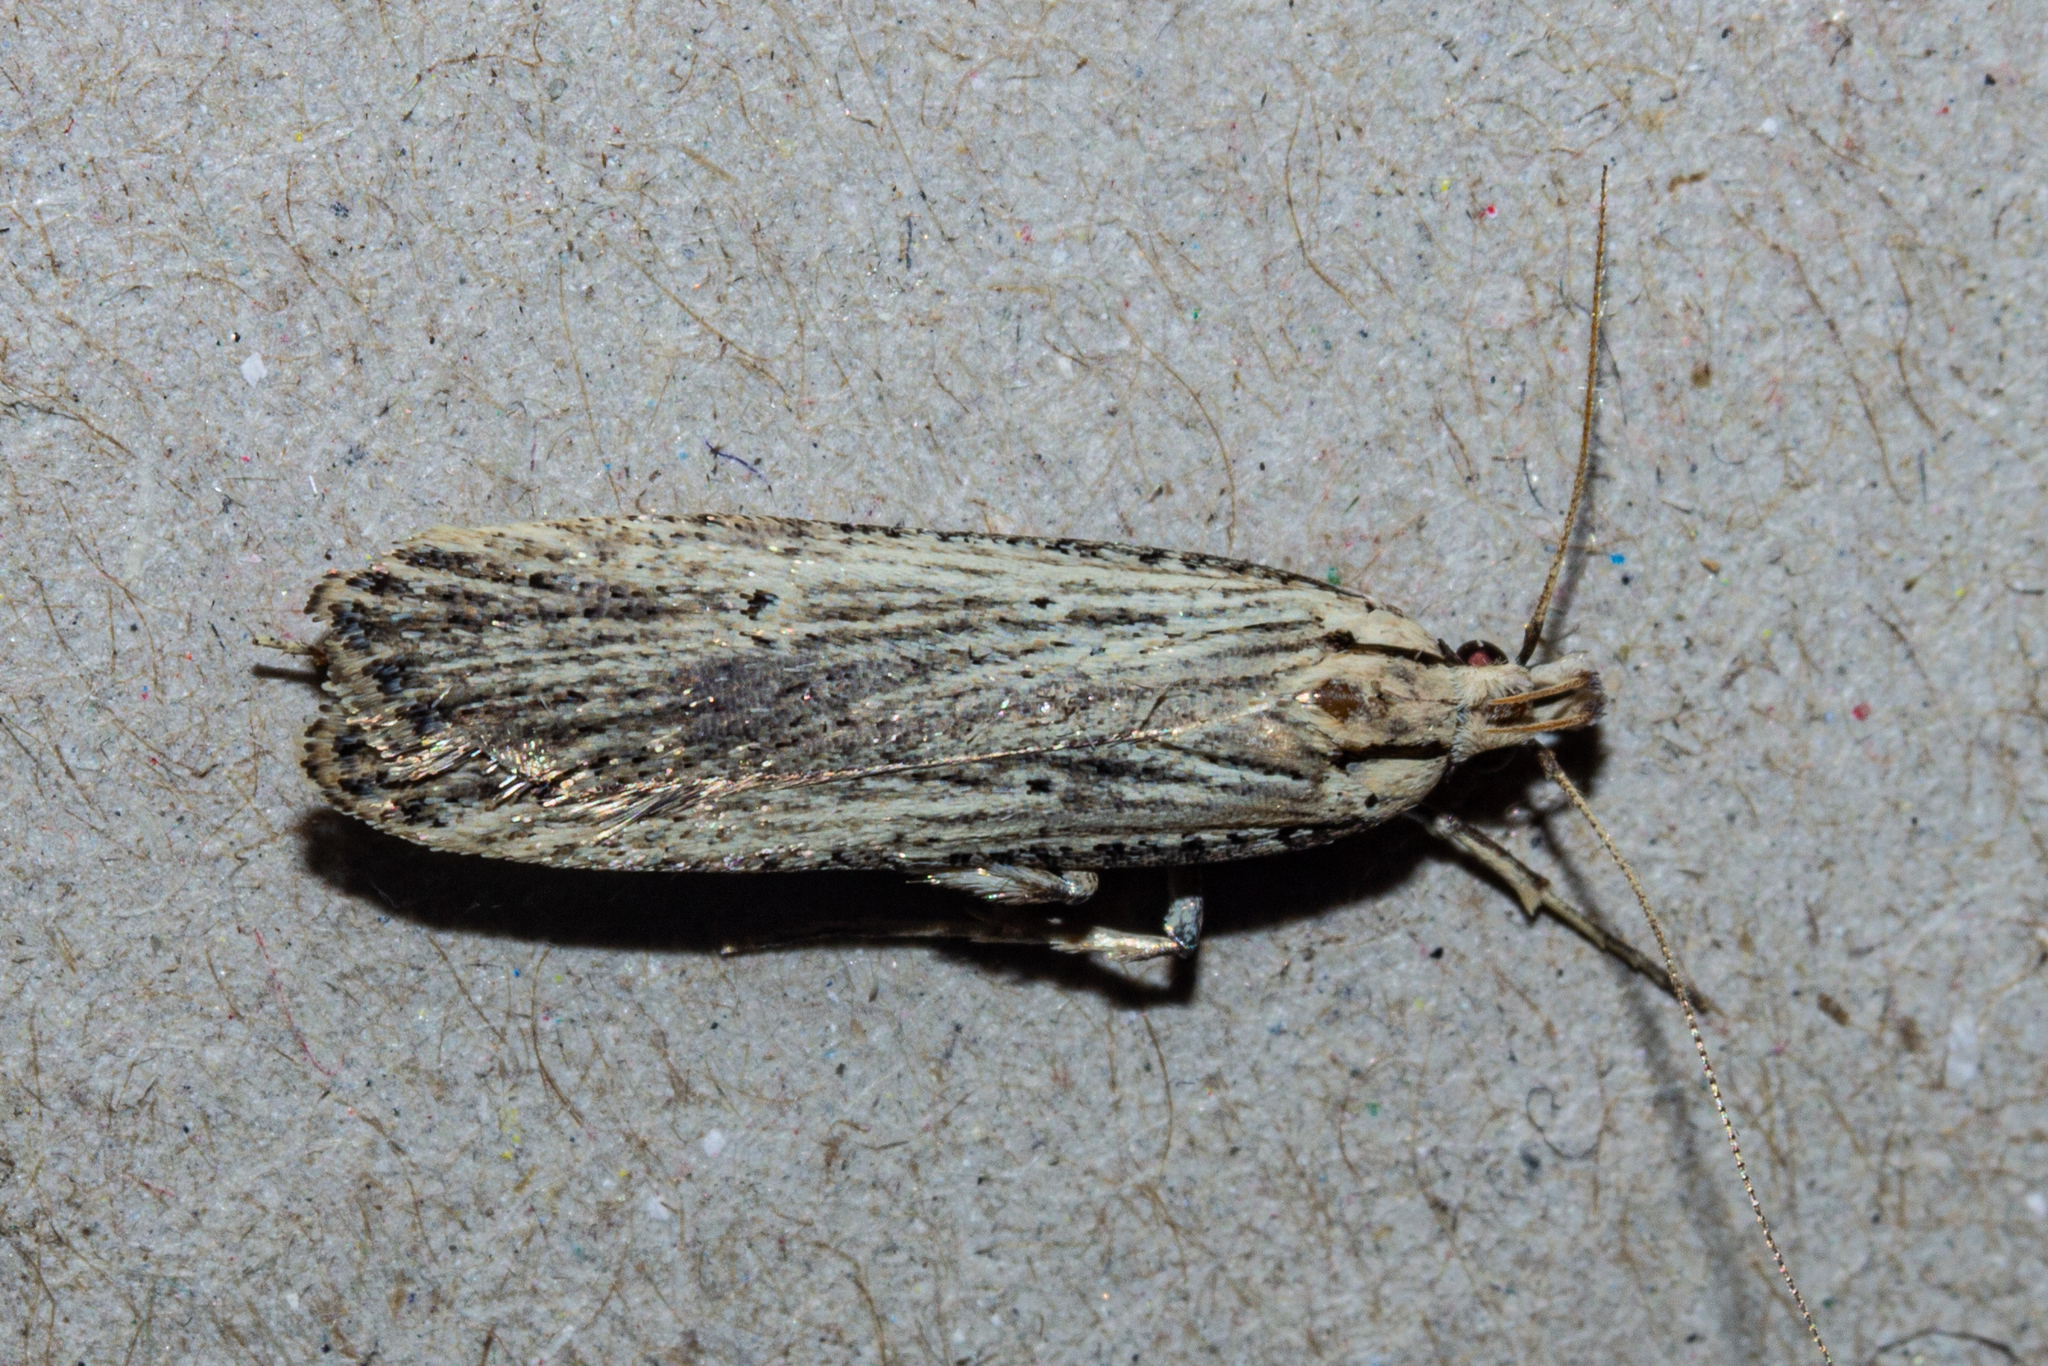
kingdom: Animalia
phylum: Arthropoda
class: Insecta
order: Lepidoptera
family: Gelechiidae
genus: Anisoplaca
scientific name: Anisoplaca ptyoptera
